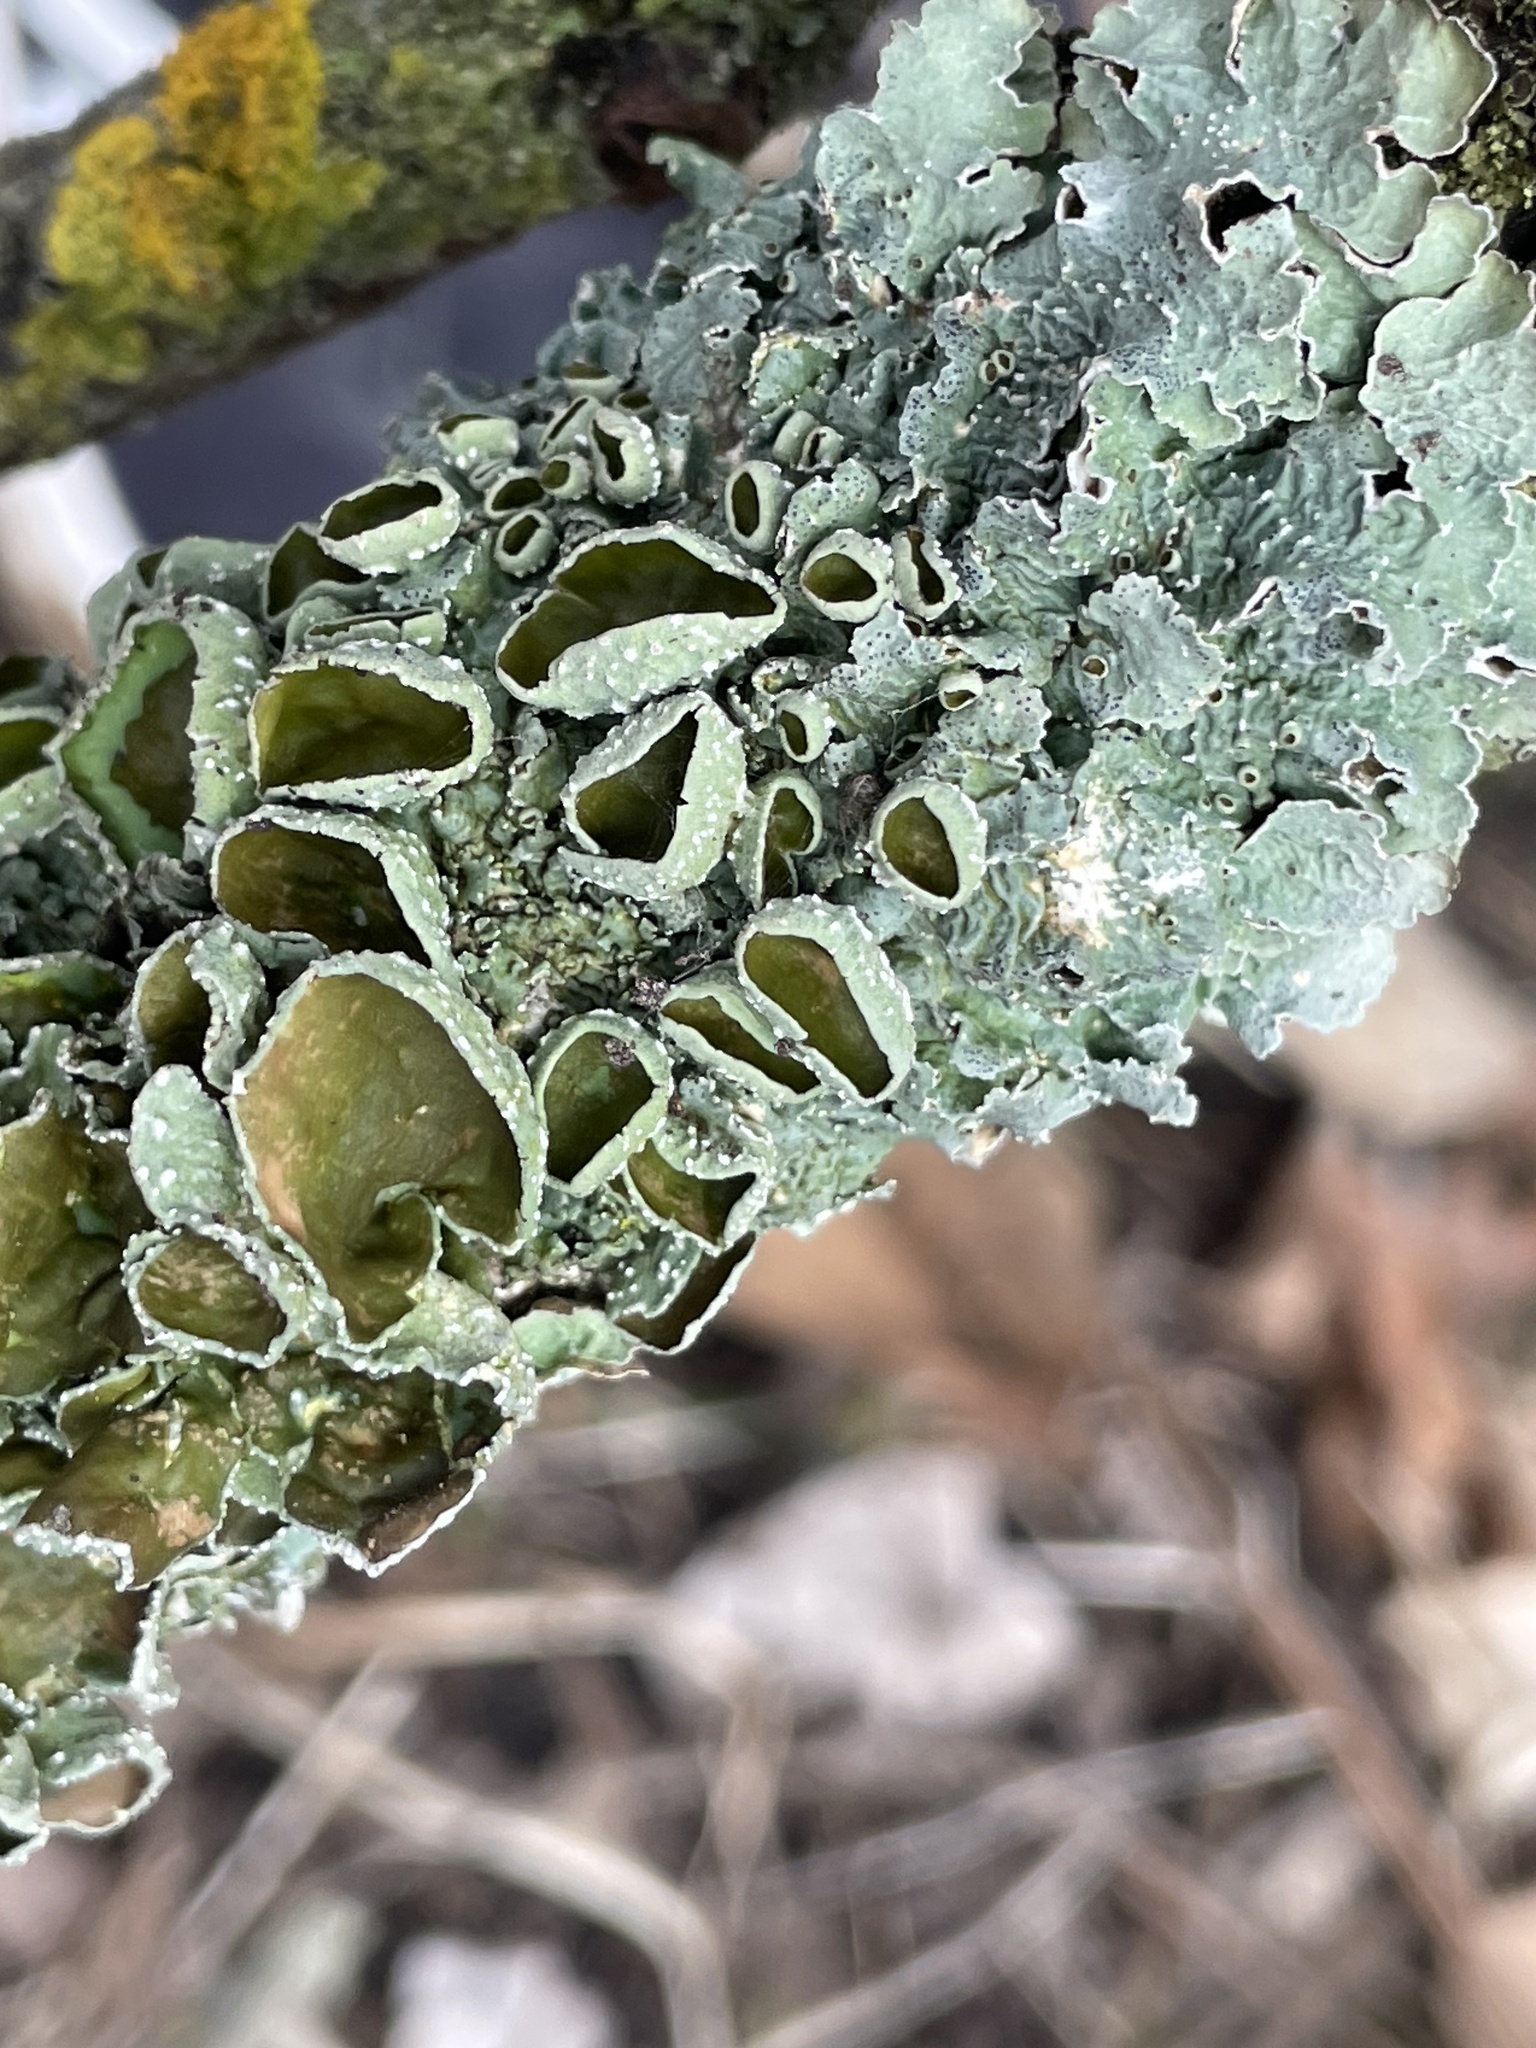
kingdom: Fungi
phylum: Ascomycota
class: Lecanoromycetes
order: Lecanorales
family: Parmeliaceae
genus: Punctelia
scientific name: Punctelia bolliana
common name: Eastern speckled shield lichen
